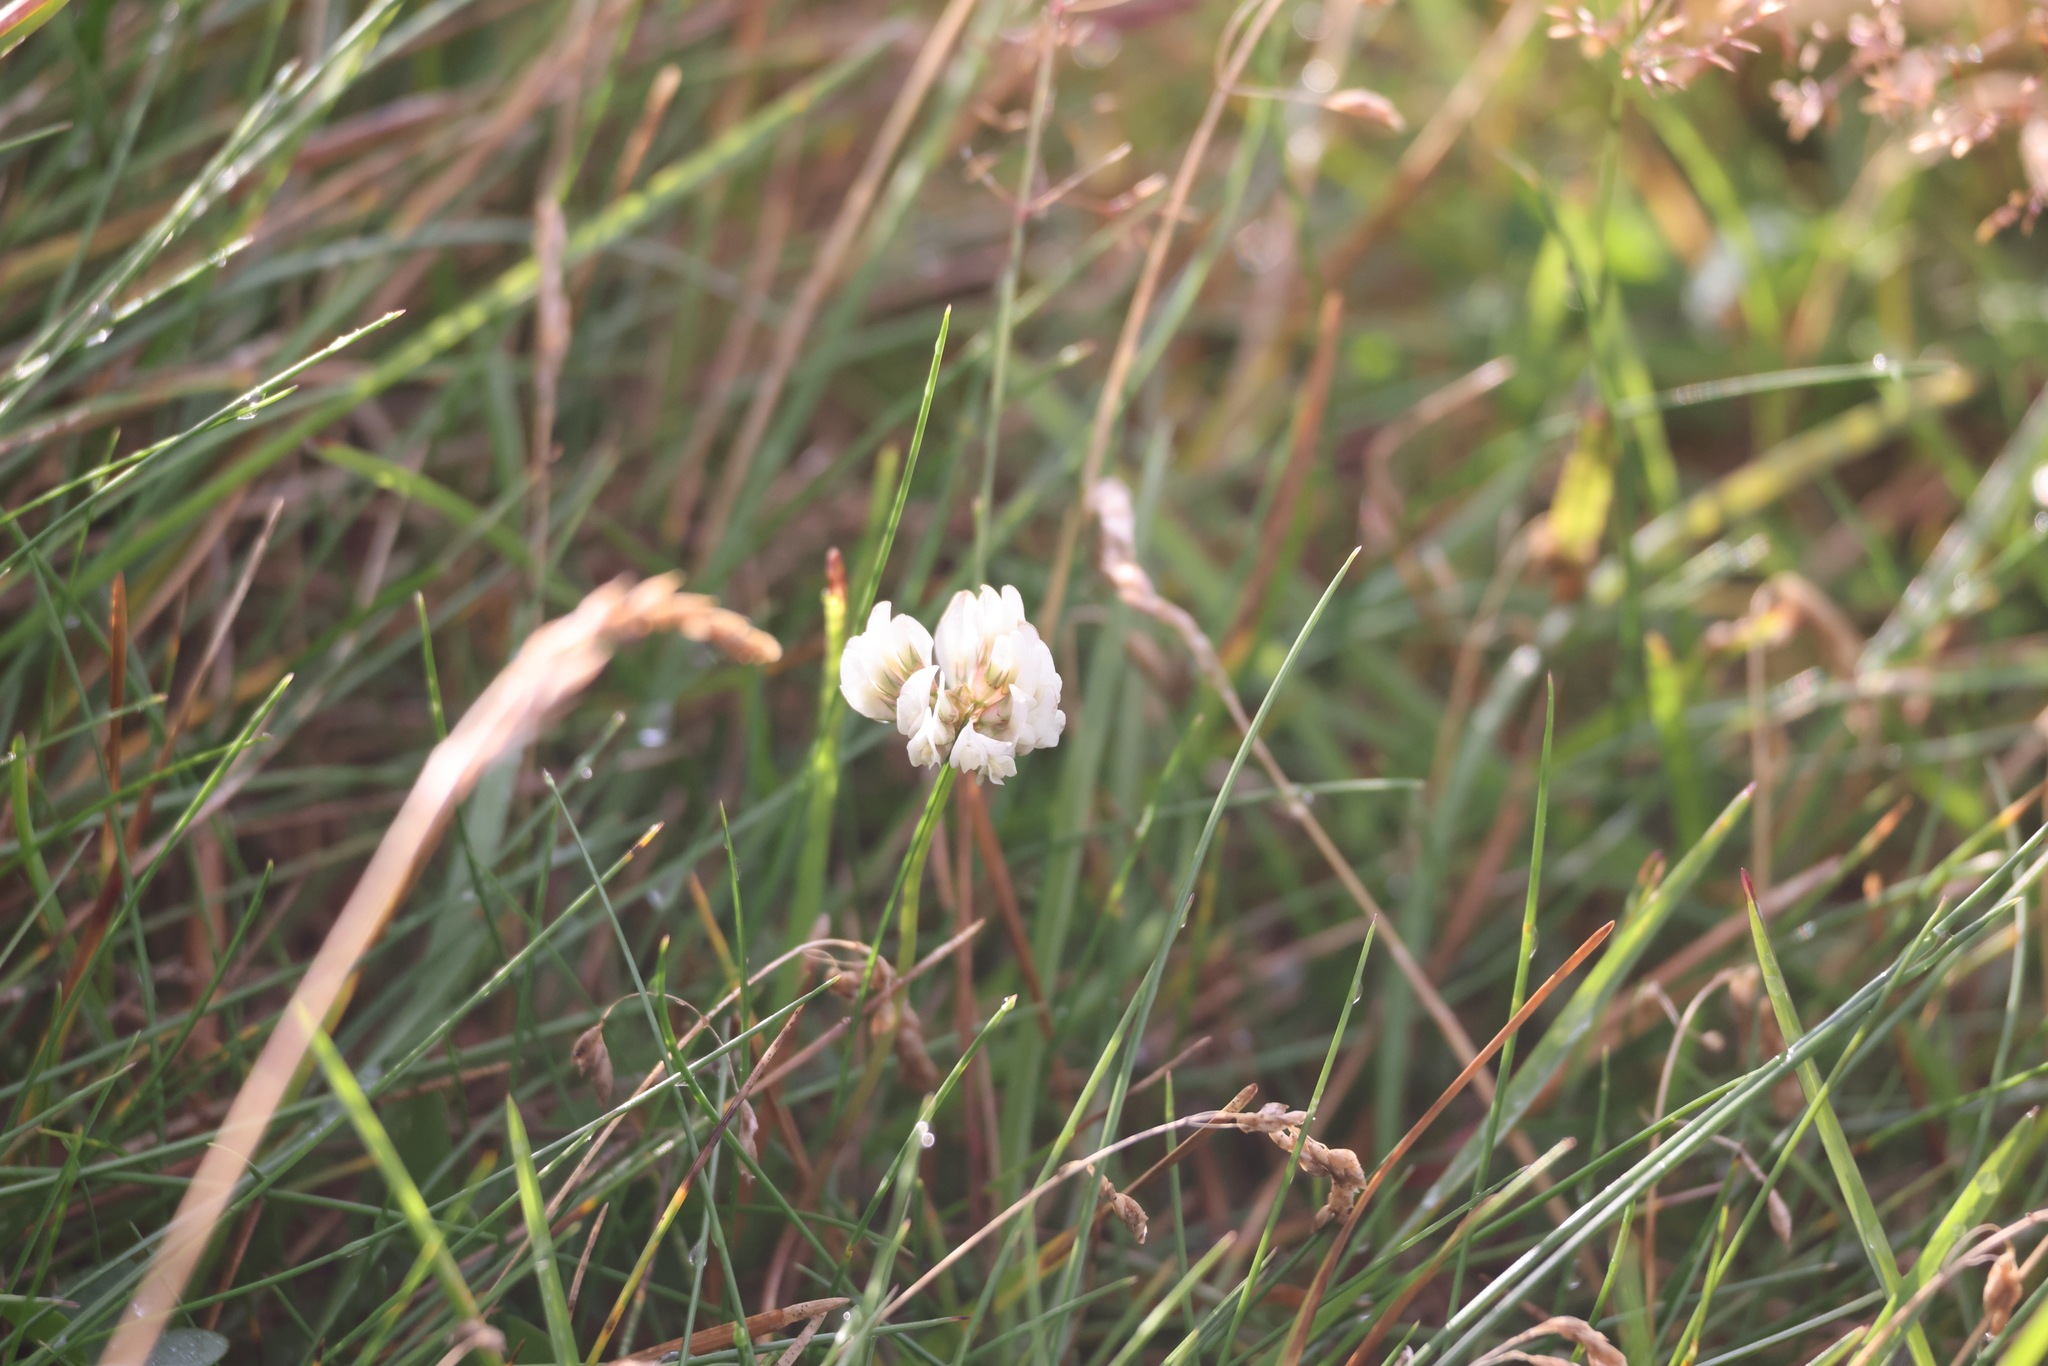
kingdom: Plantae
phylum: Tracheophyta
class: Magnoliopsida
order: Fabales
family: Fabaceae
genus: Trifolium
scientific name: Trifolium repens
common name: White clover
